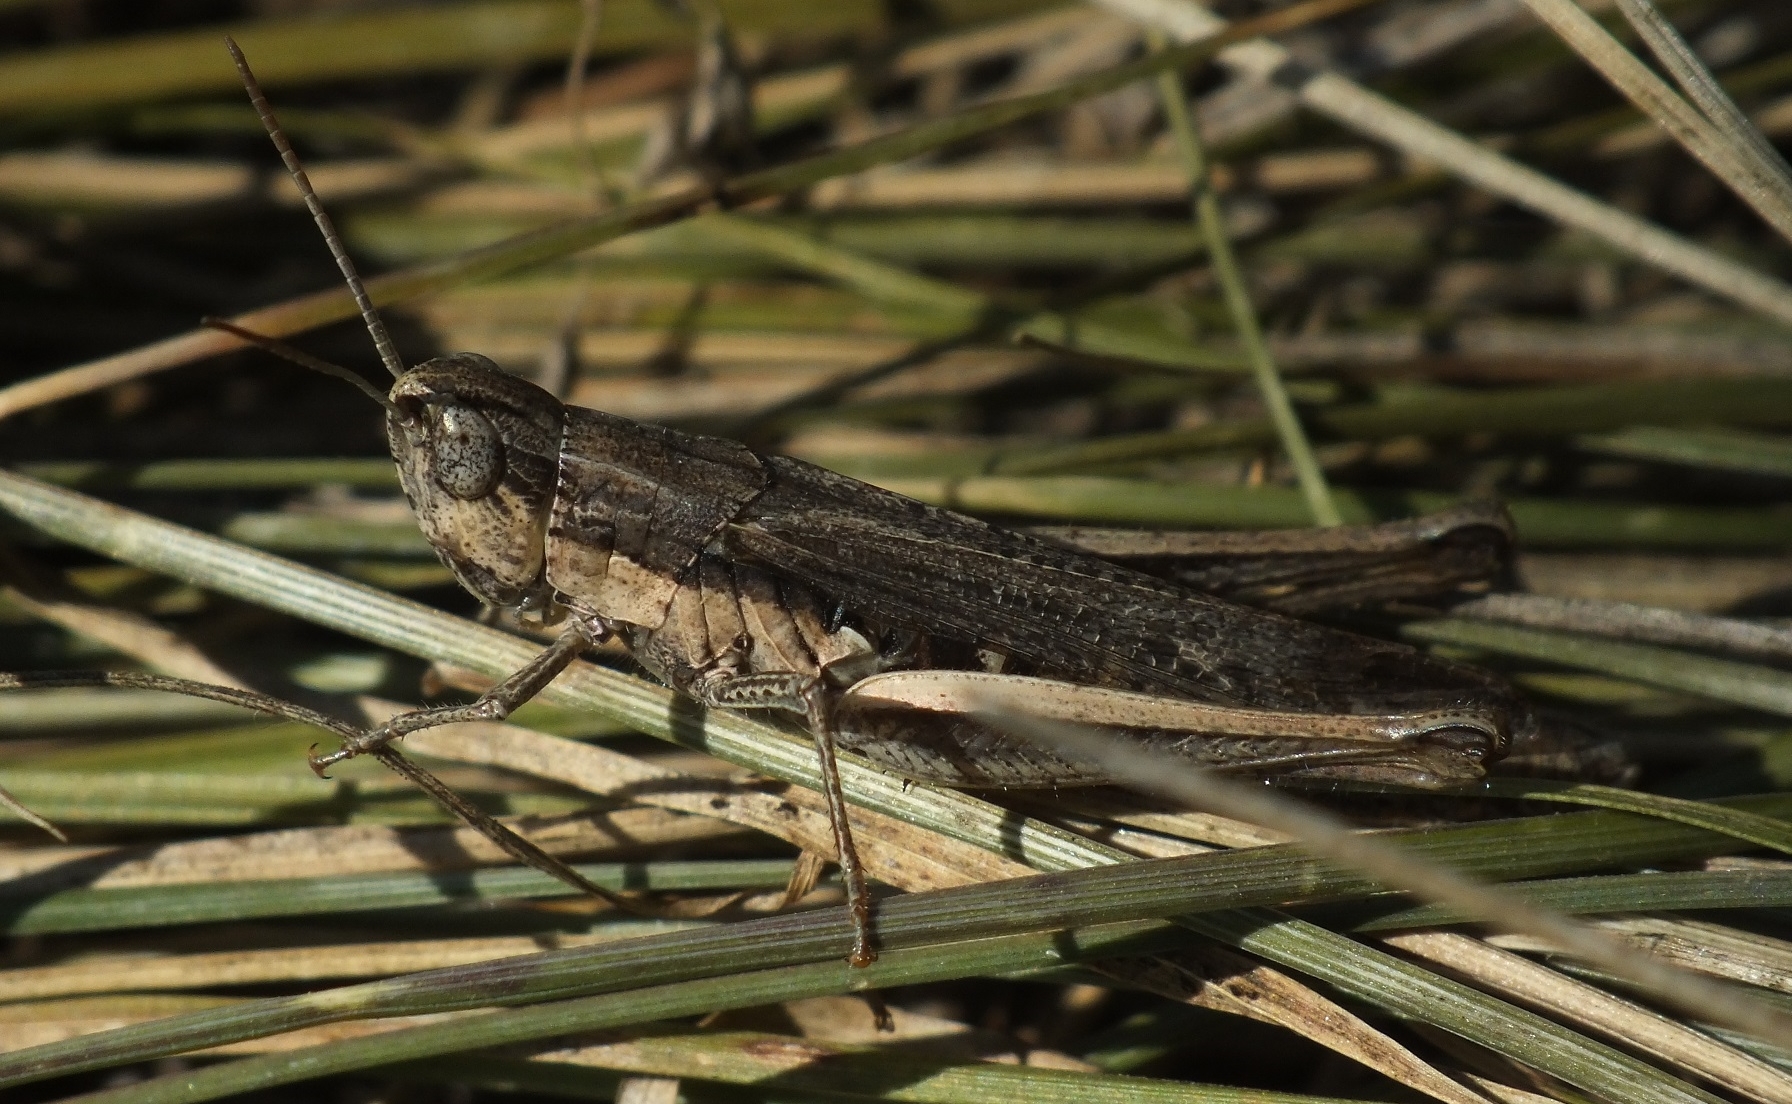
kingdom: Animalia
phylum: Arthropoda
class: Insecta
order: Orthoptera
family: Acrididae
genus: Chorthippus
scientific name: Chorthippus dichrous
